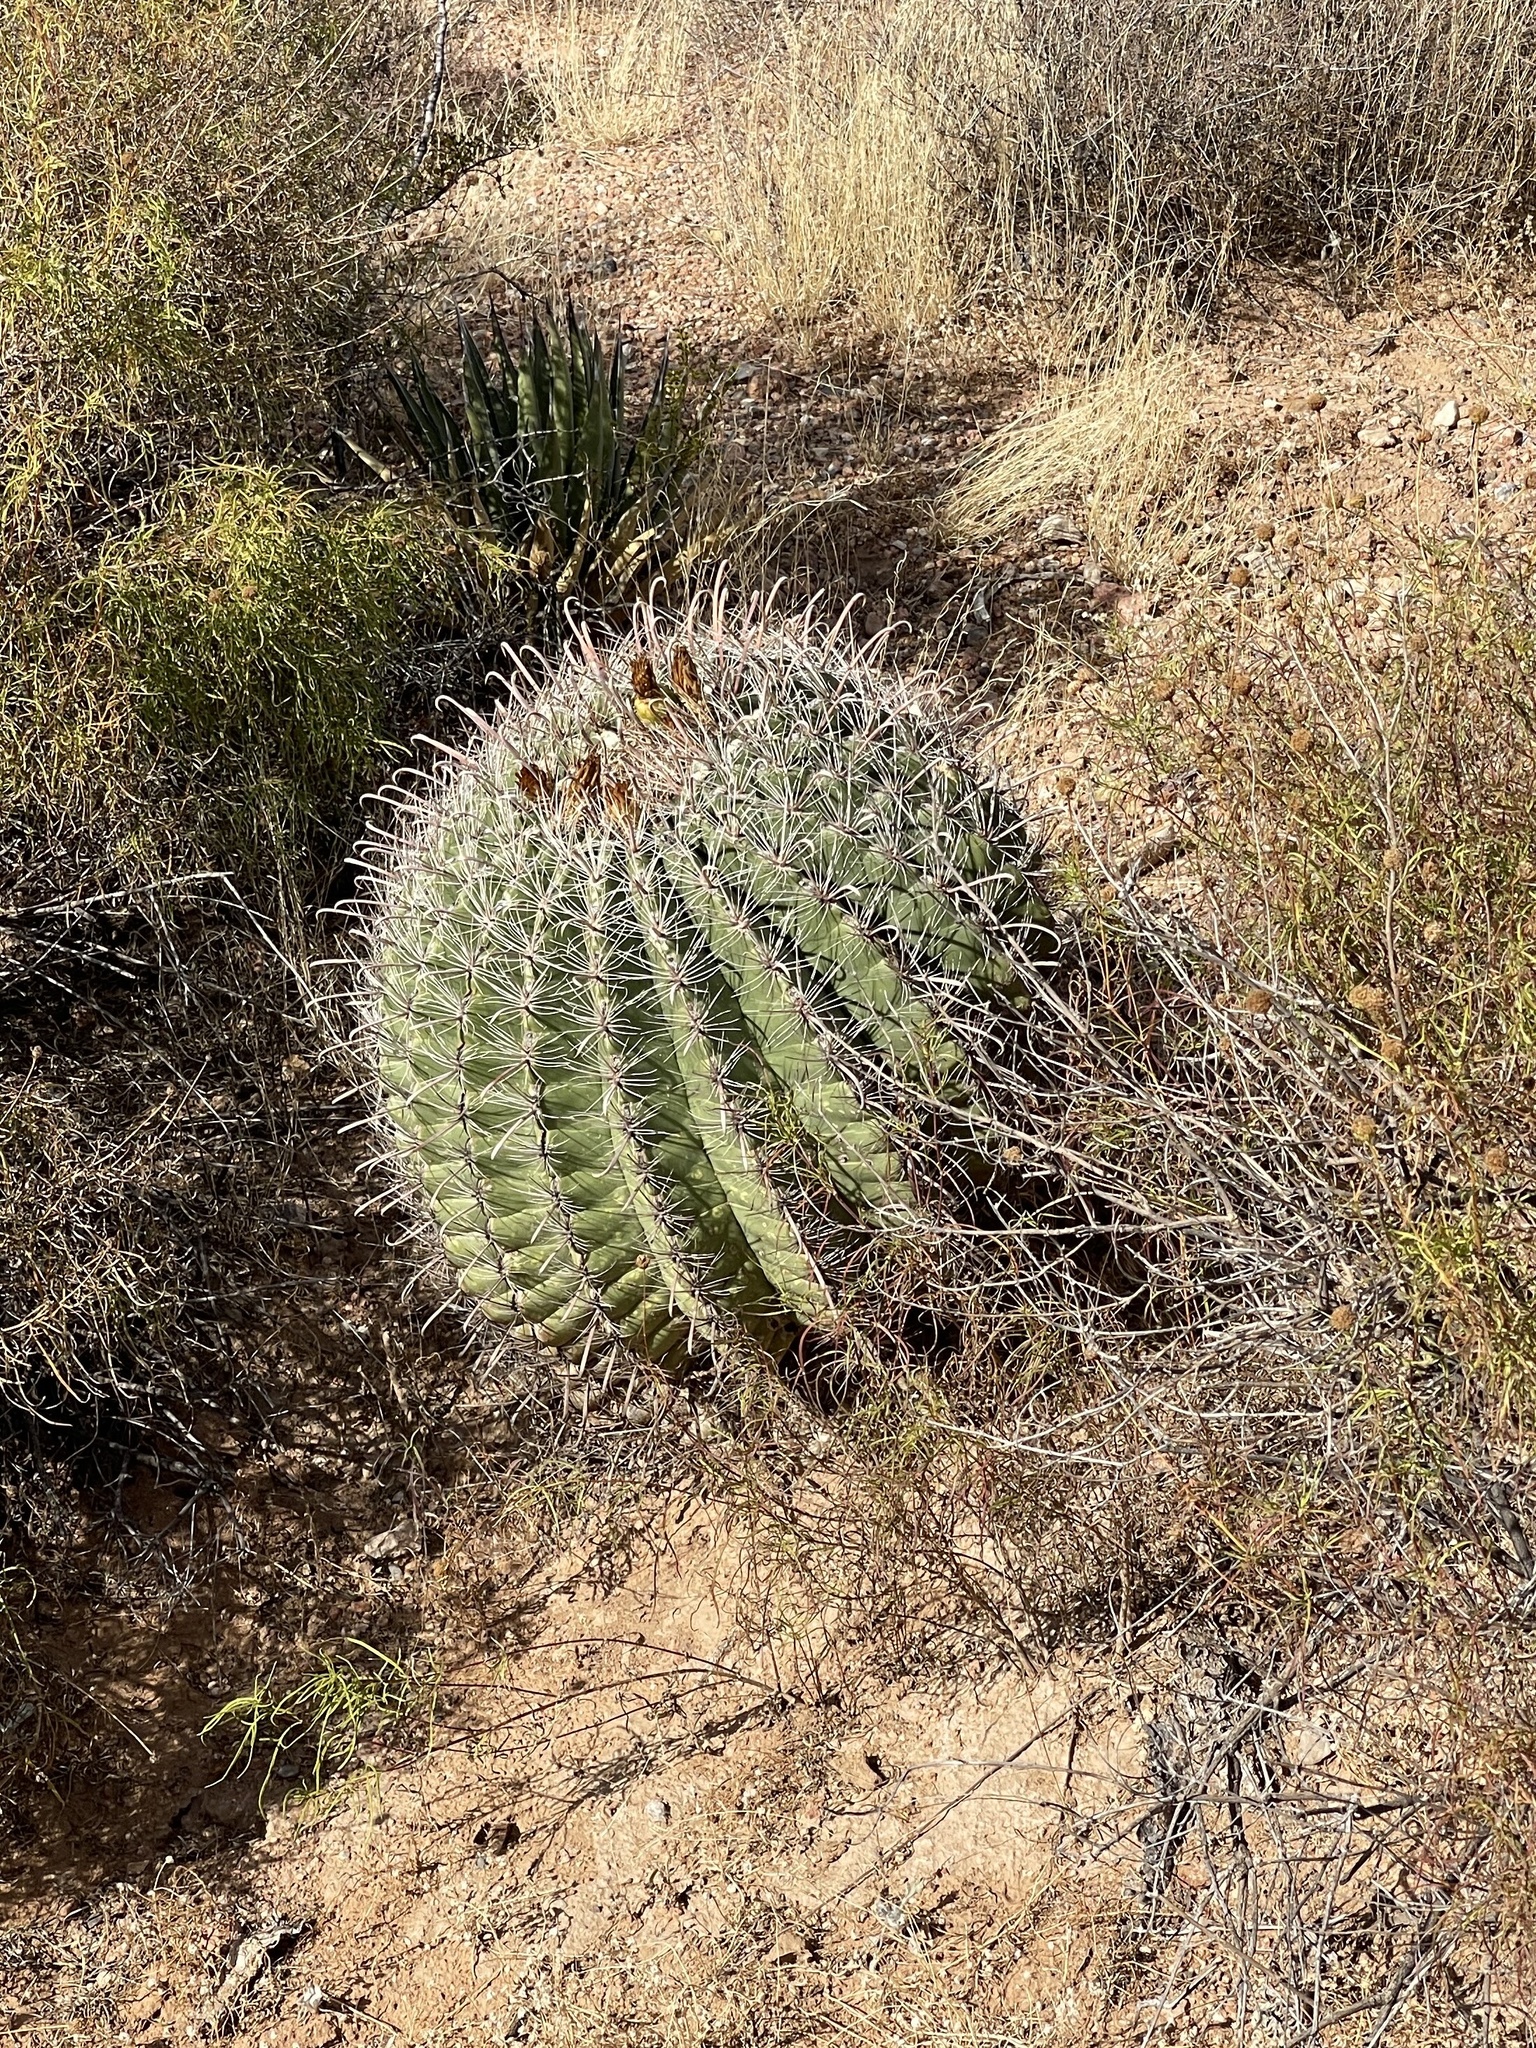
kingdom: Plantae
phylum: Tracheophyta
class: Magnoliopsida
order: Caryophyllales
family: Cactaceae
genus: Ferocactus
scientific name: Ferocactus wislizeni
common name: Candy barrel cactus
